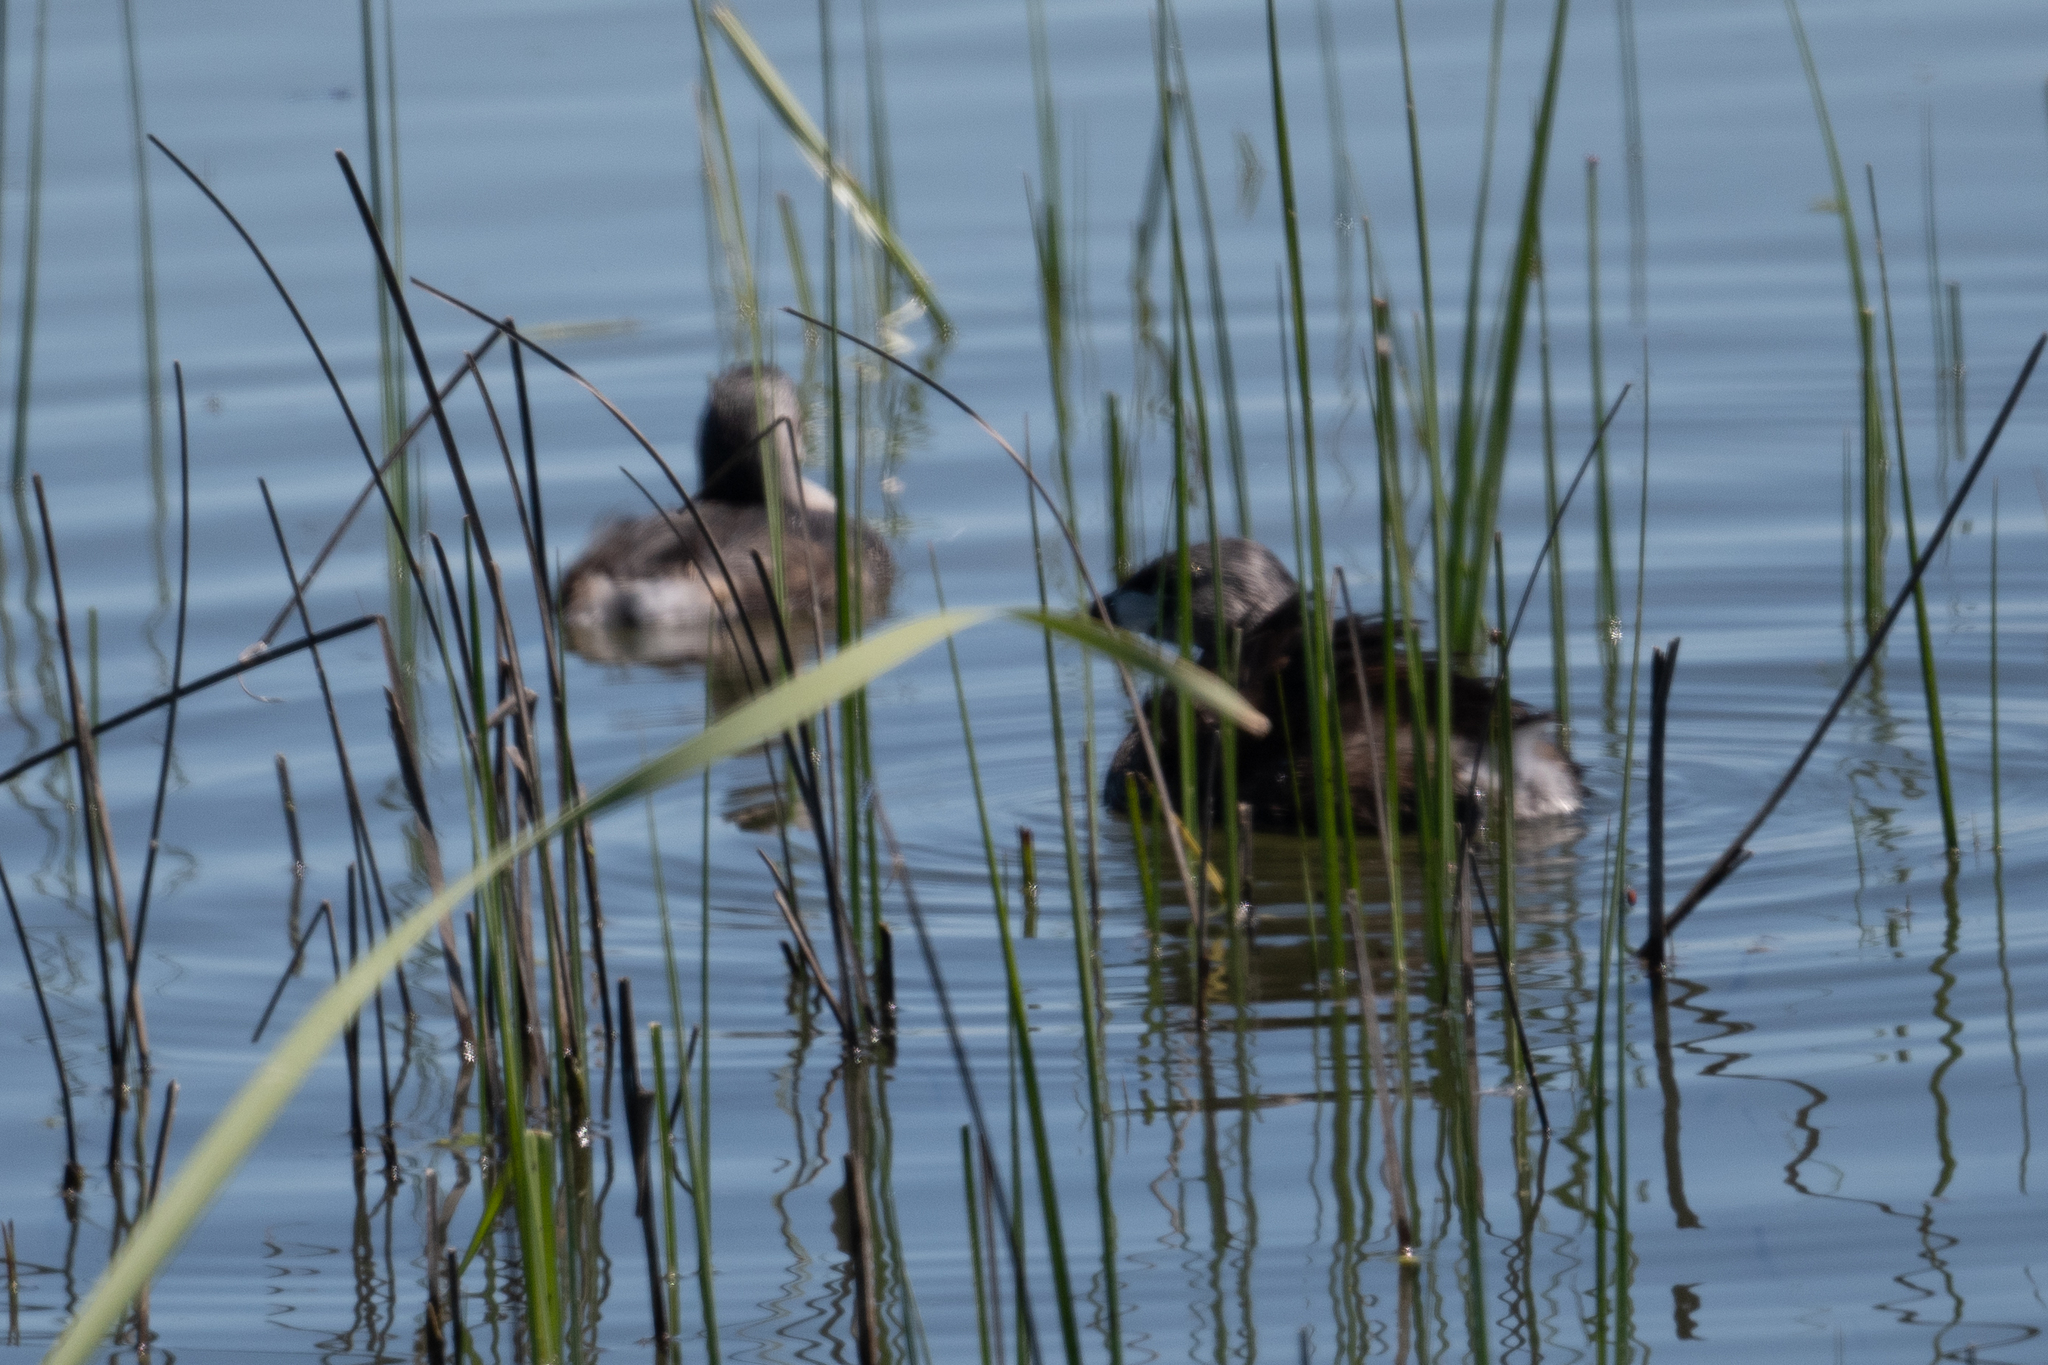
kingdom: Animalia
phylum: Chordata
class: Aves
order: Podicipediformes
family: Podicipedidae
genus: Podilymbus
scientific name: Podilymbus podiceps
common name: Pied-billed grebe
